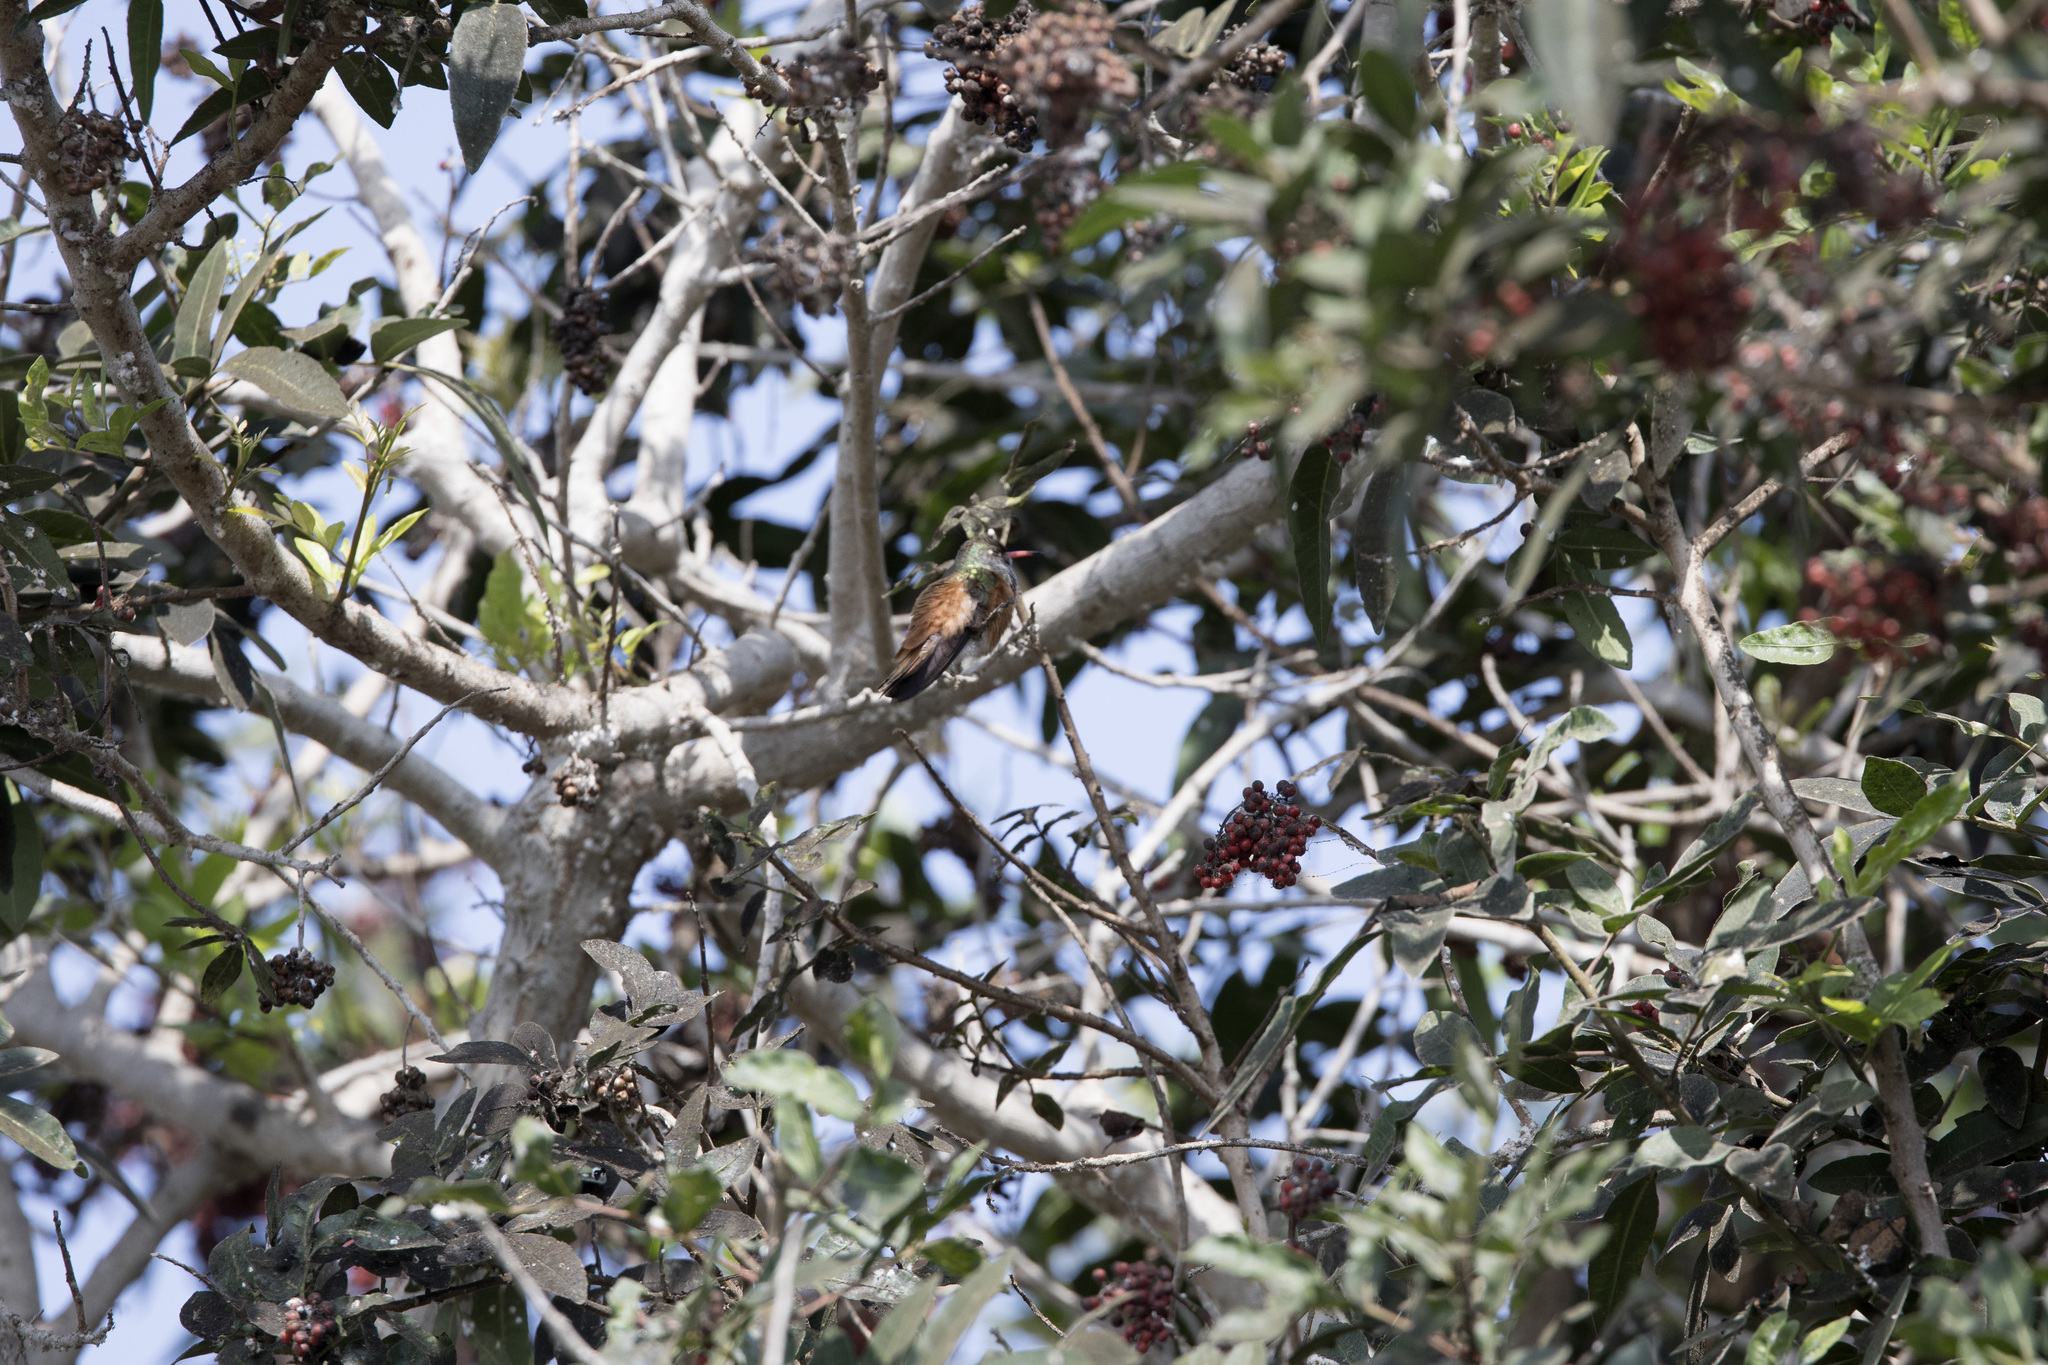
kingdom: Animalia
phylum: Chordata
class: Aves
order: Apodiformes
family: Trochilidae
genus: Amazilis
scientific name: Amazilis amazilia
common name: Amazilia hummingbird
